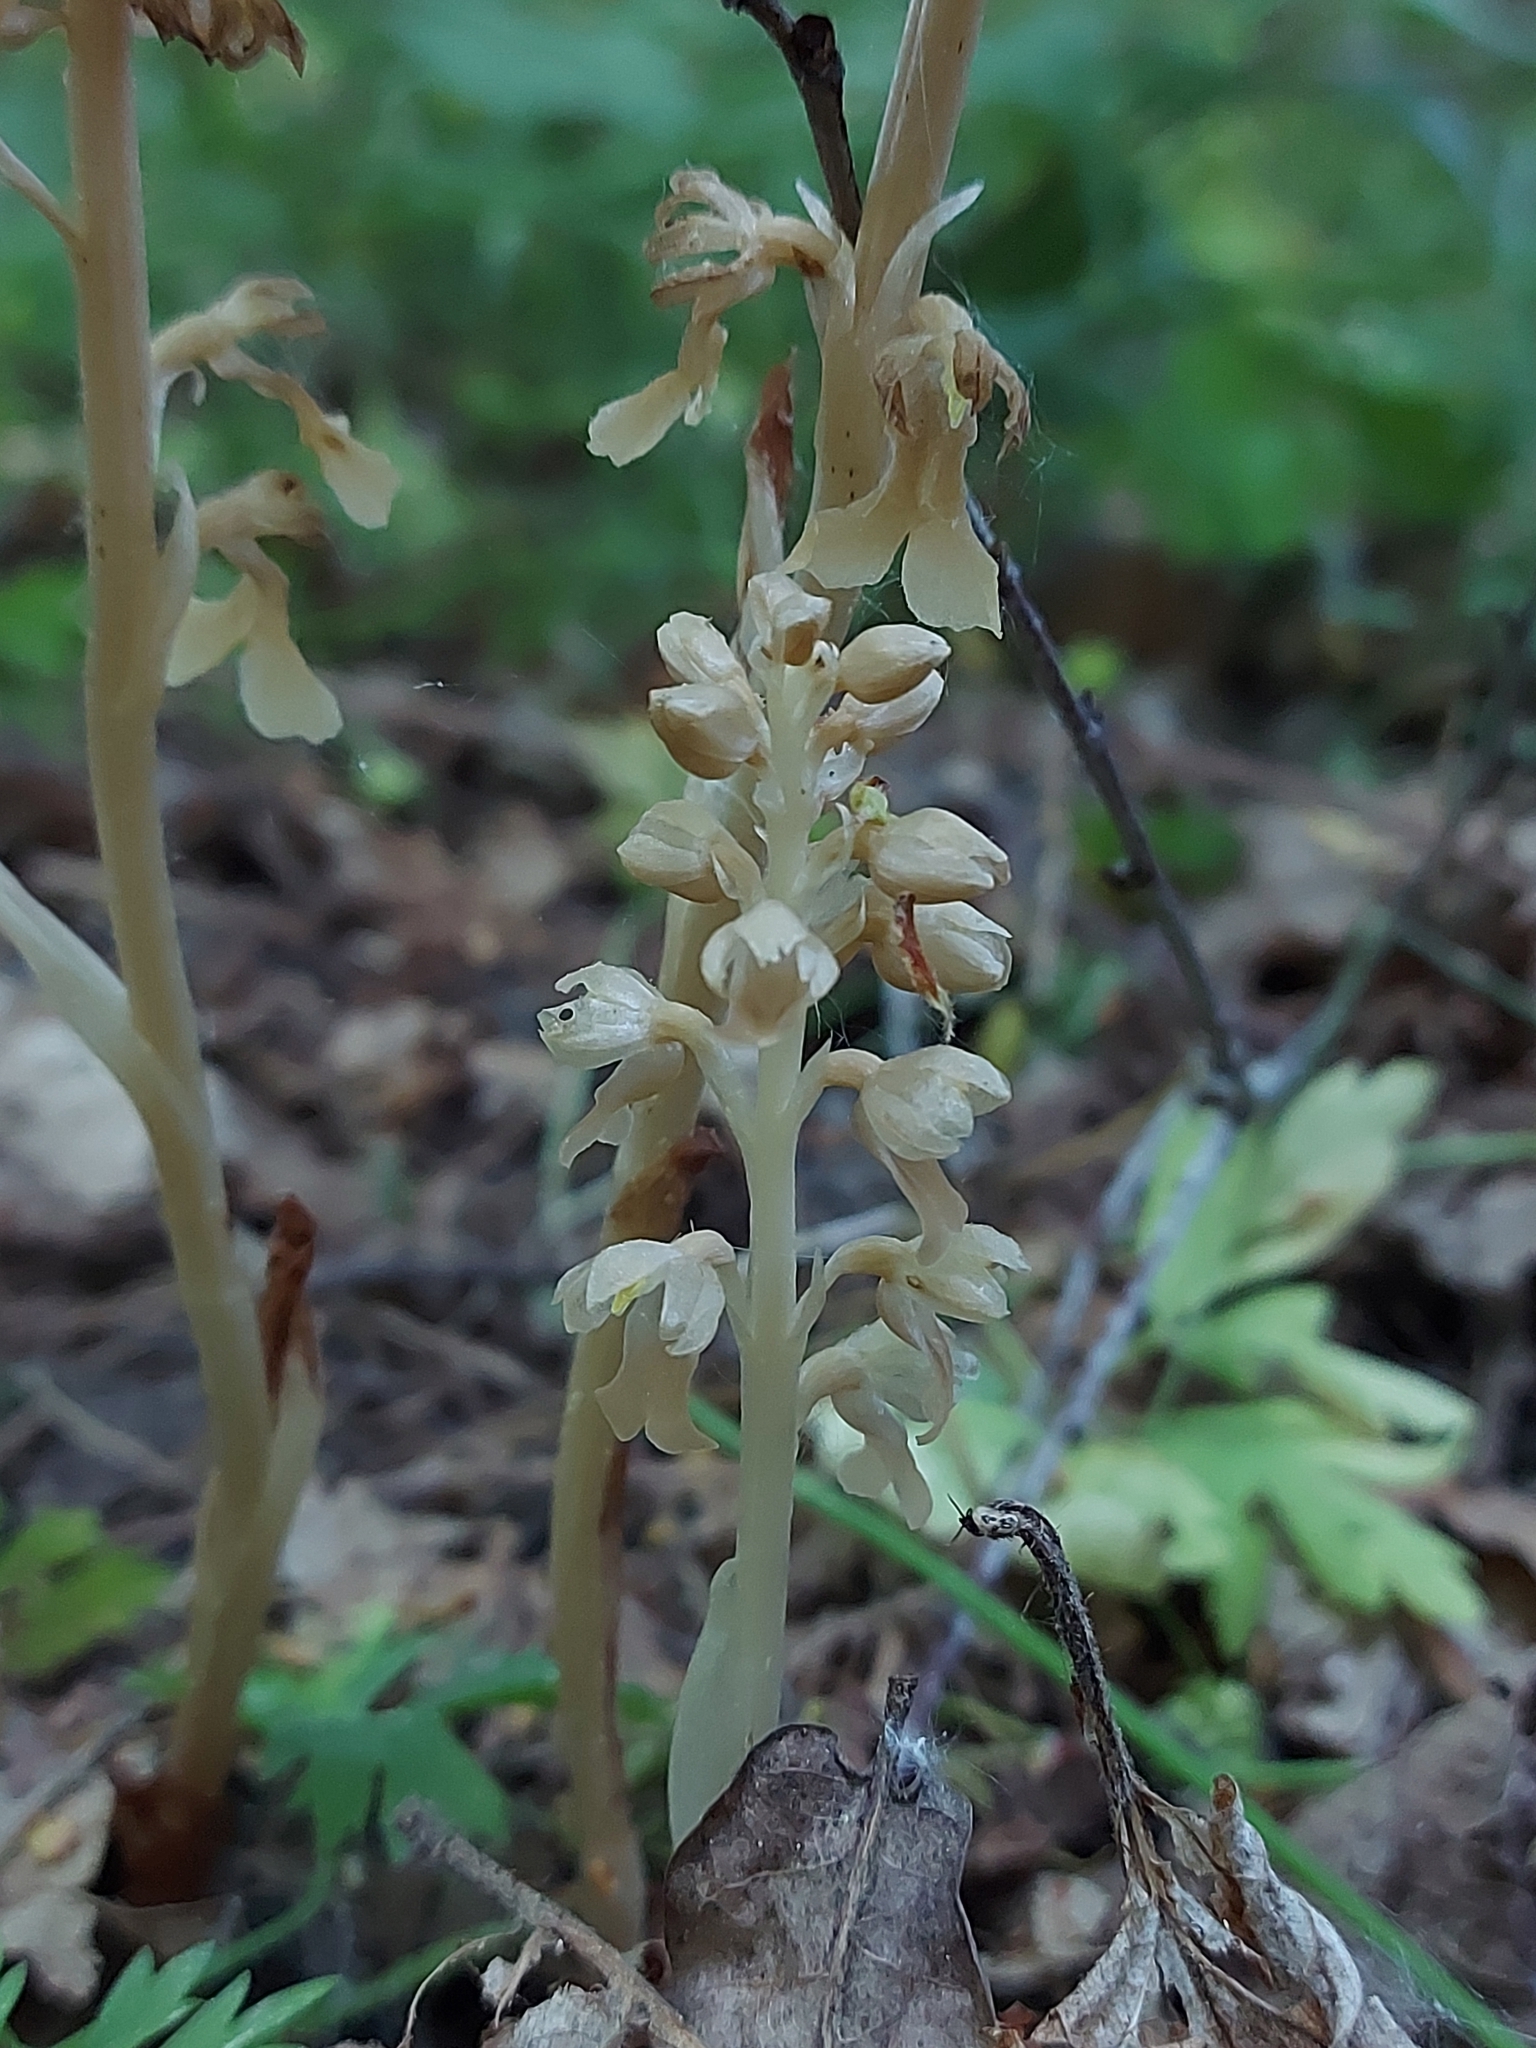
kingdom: Plantae
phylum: Tracheophyta
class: Liliopsida
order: Asparagales
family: Orchidaceae
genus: Neottia
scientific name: Neottia nidus-avis
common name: Bird's-nest orchid
